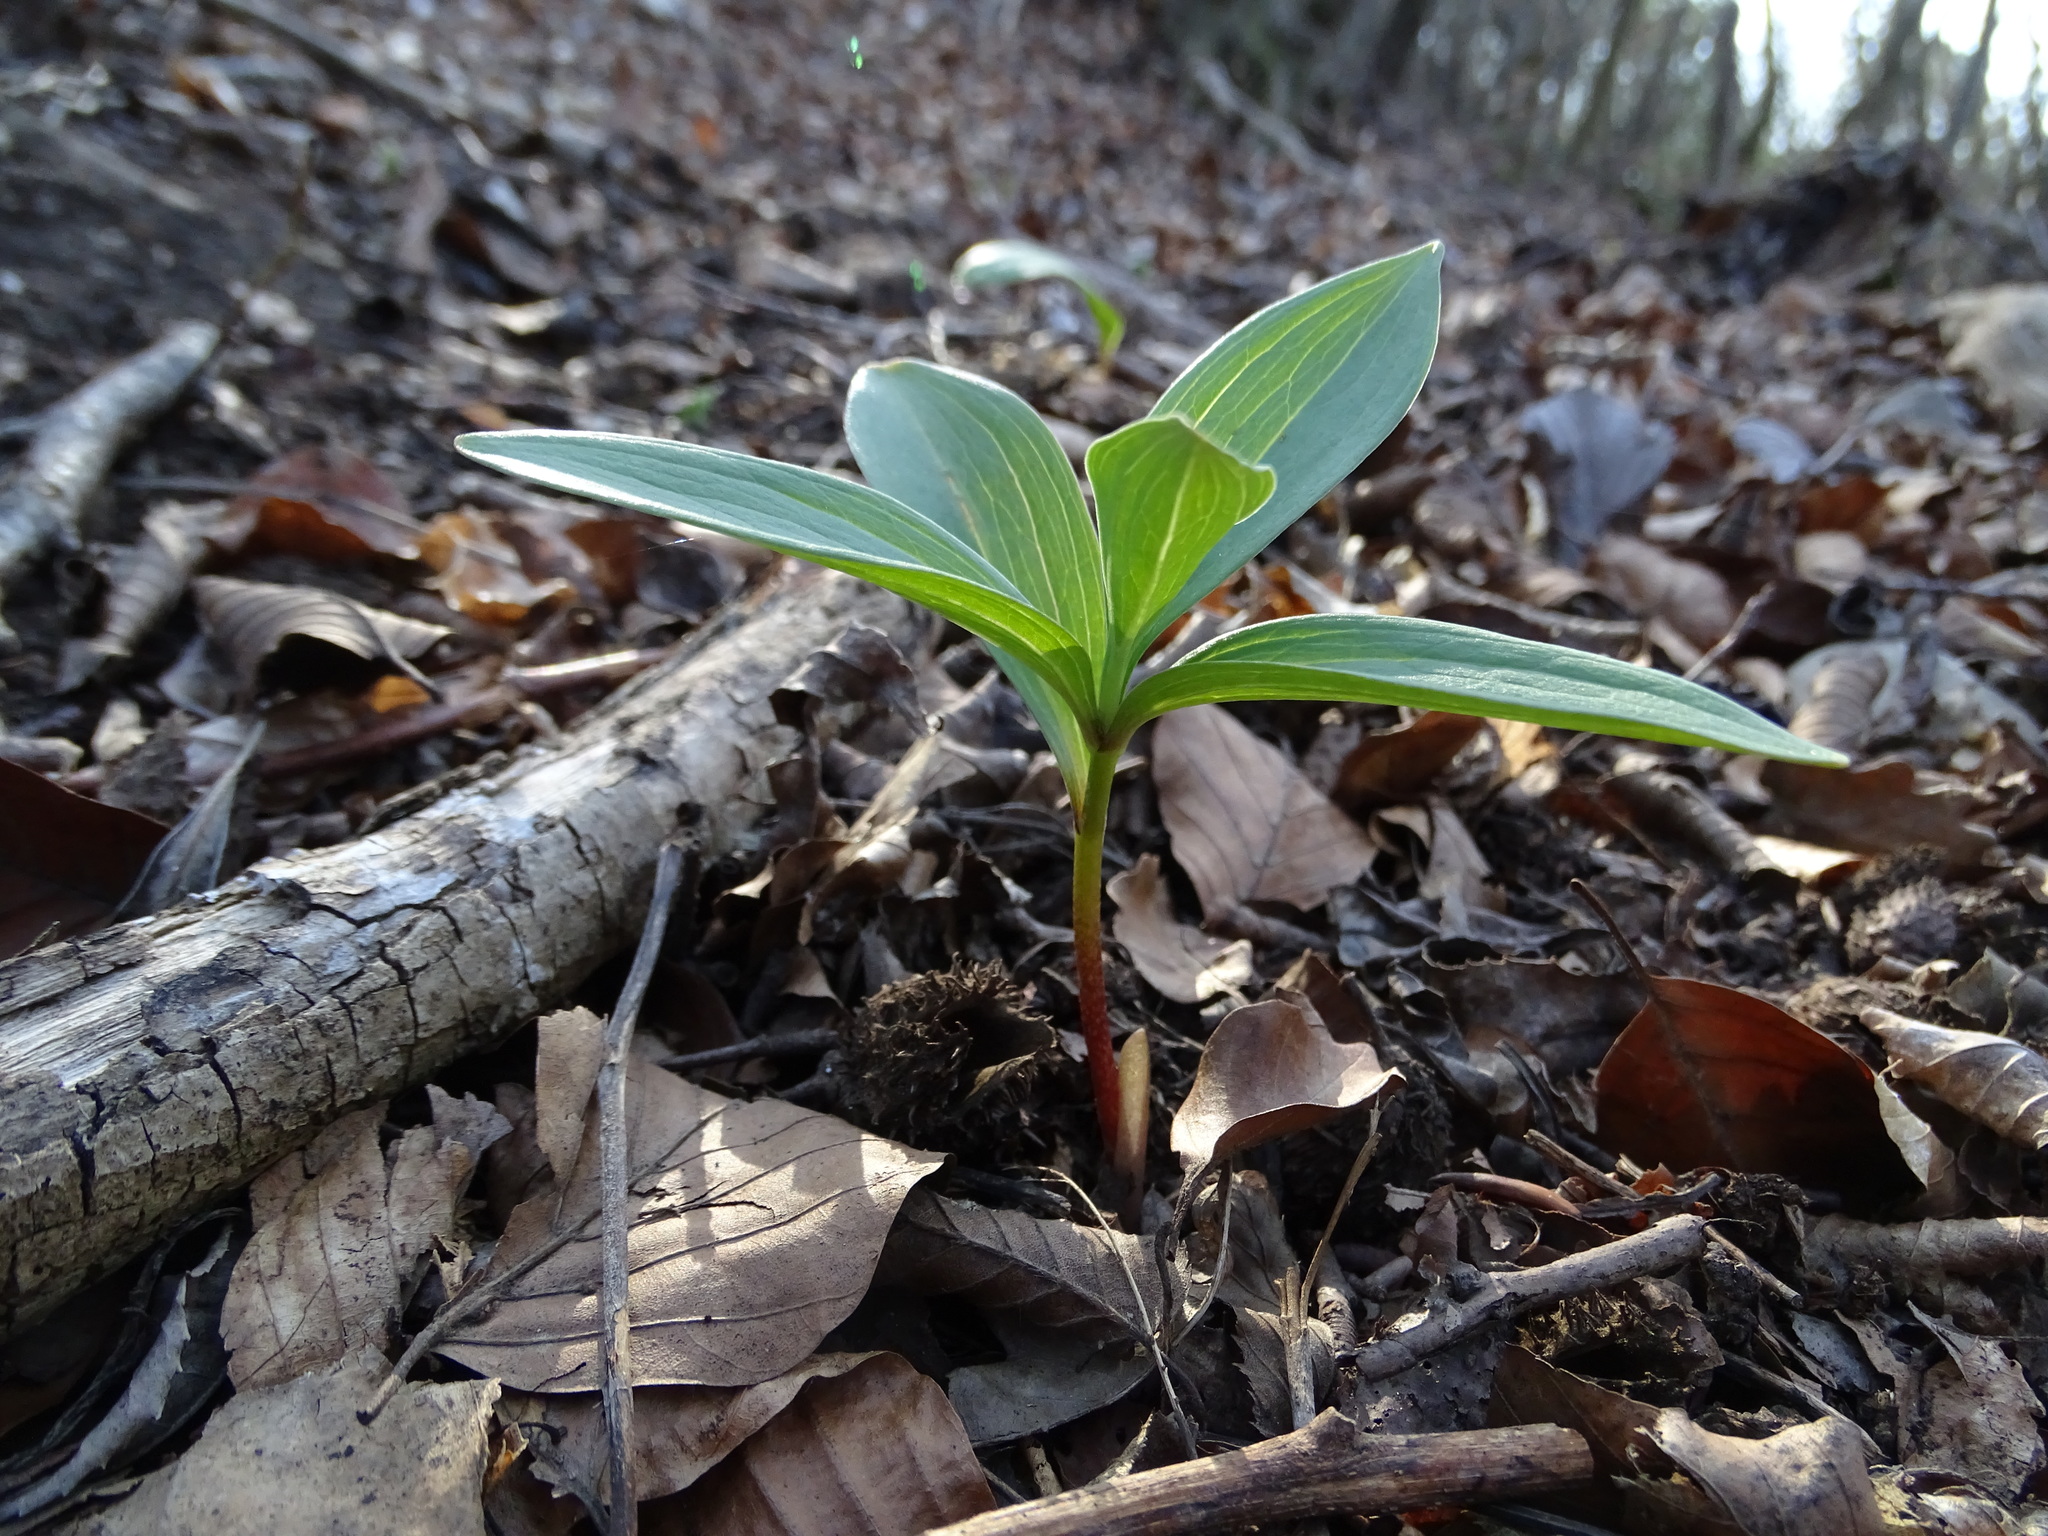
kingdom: Plantae
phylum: Tracheophyta
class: Liliopsida
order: Liliales
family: Liliaceae
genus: Lilium
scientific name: Lilium martagon
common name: Martagon lily
